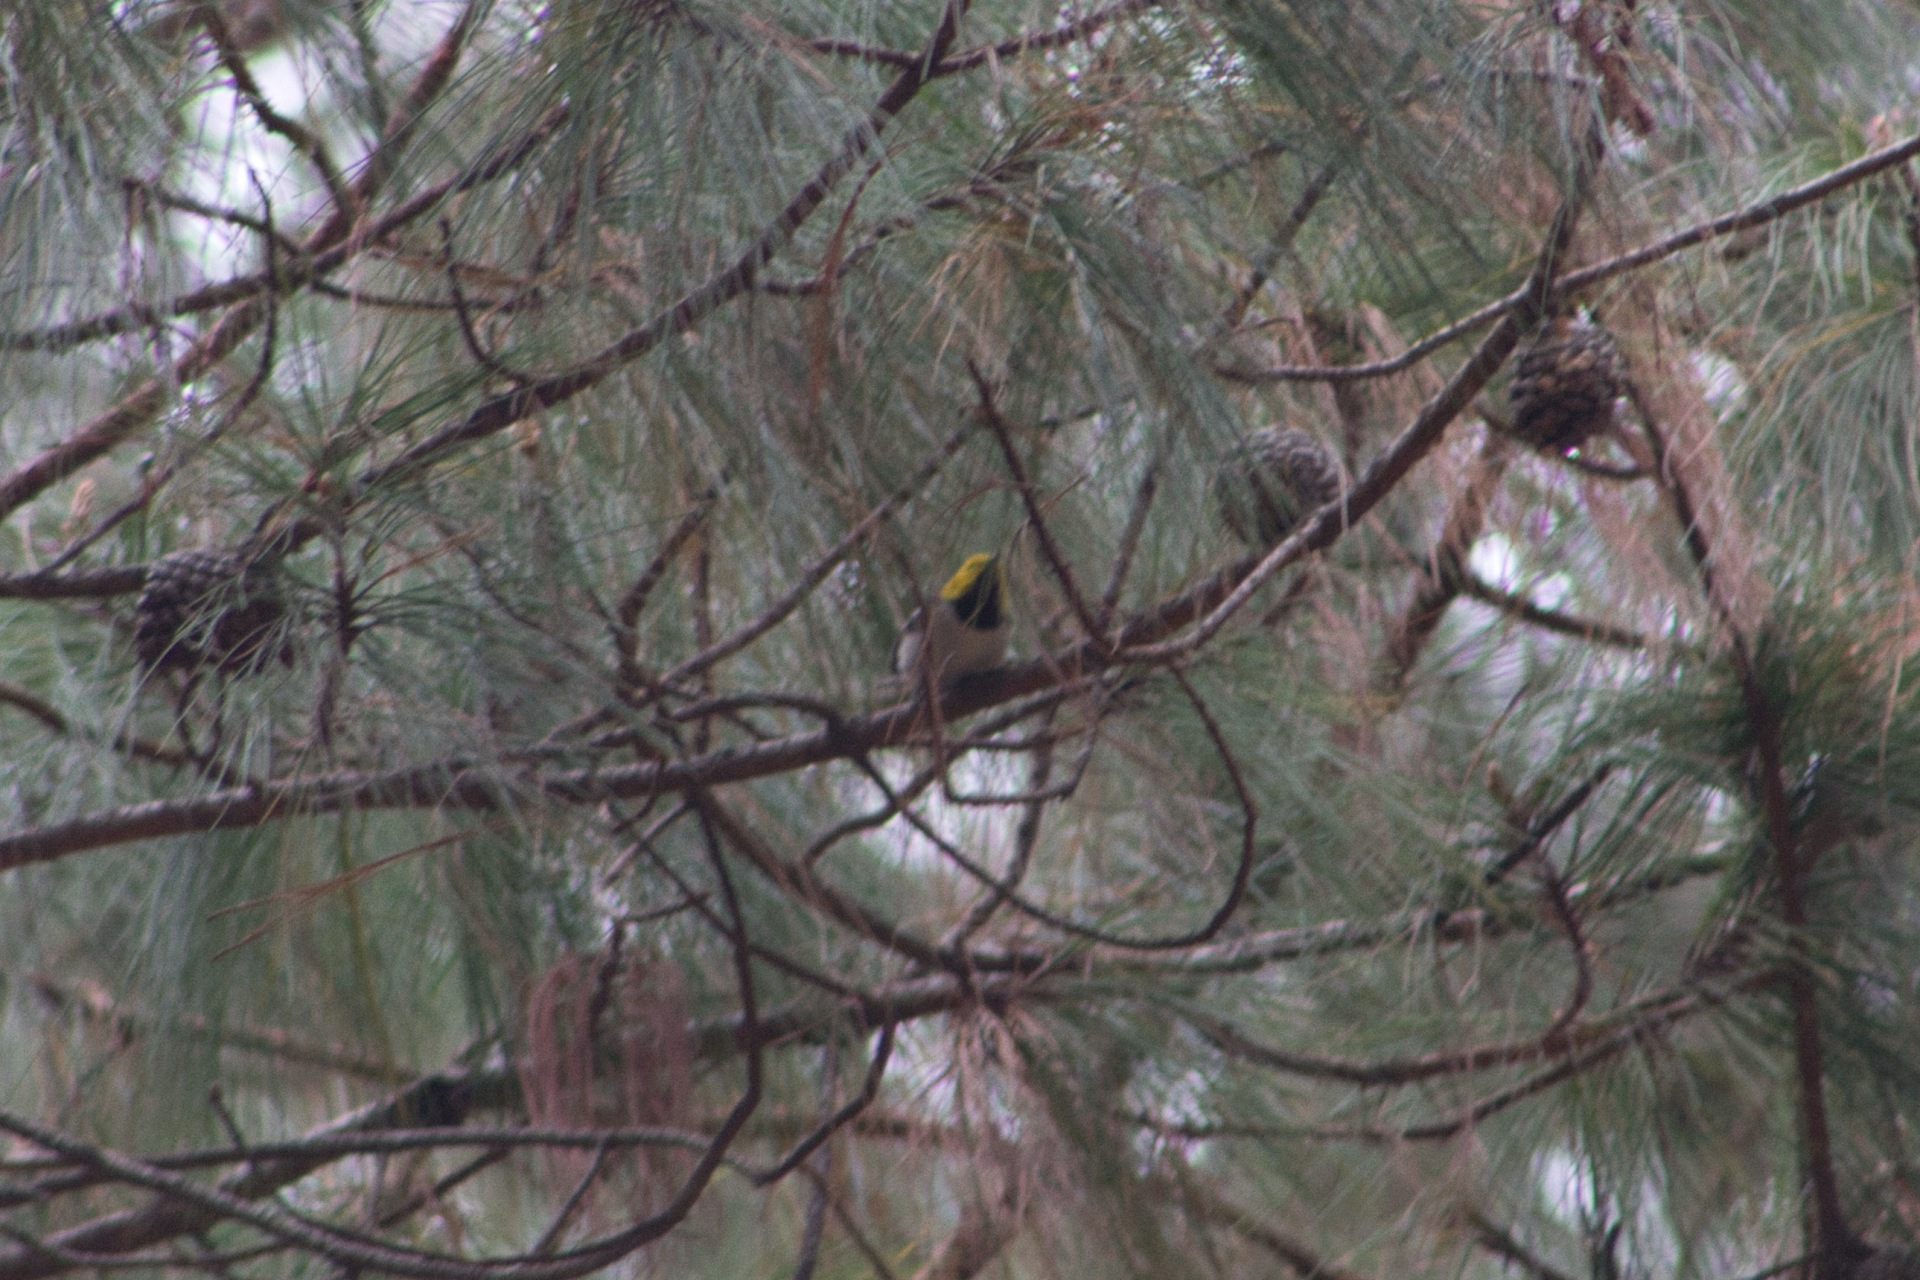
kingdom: Animalia
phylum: Chordata
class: Aves
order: Passeriformes
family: Parulidae
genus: Setophaga
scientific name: Setophaga occidentalis
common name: Hermit warbler
